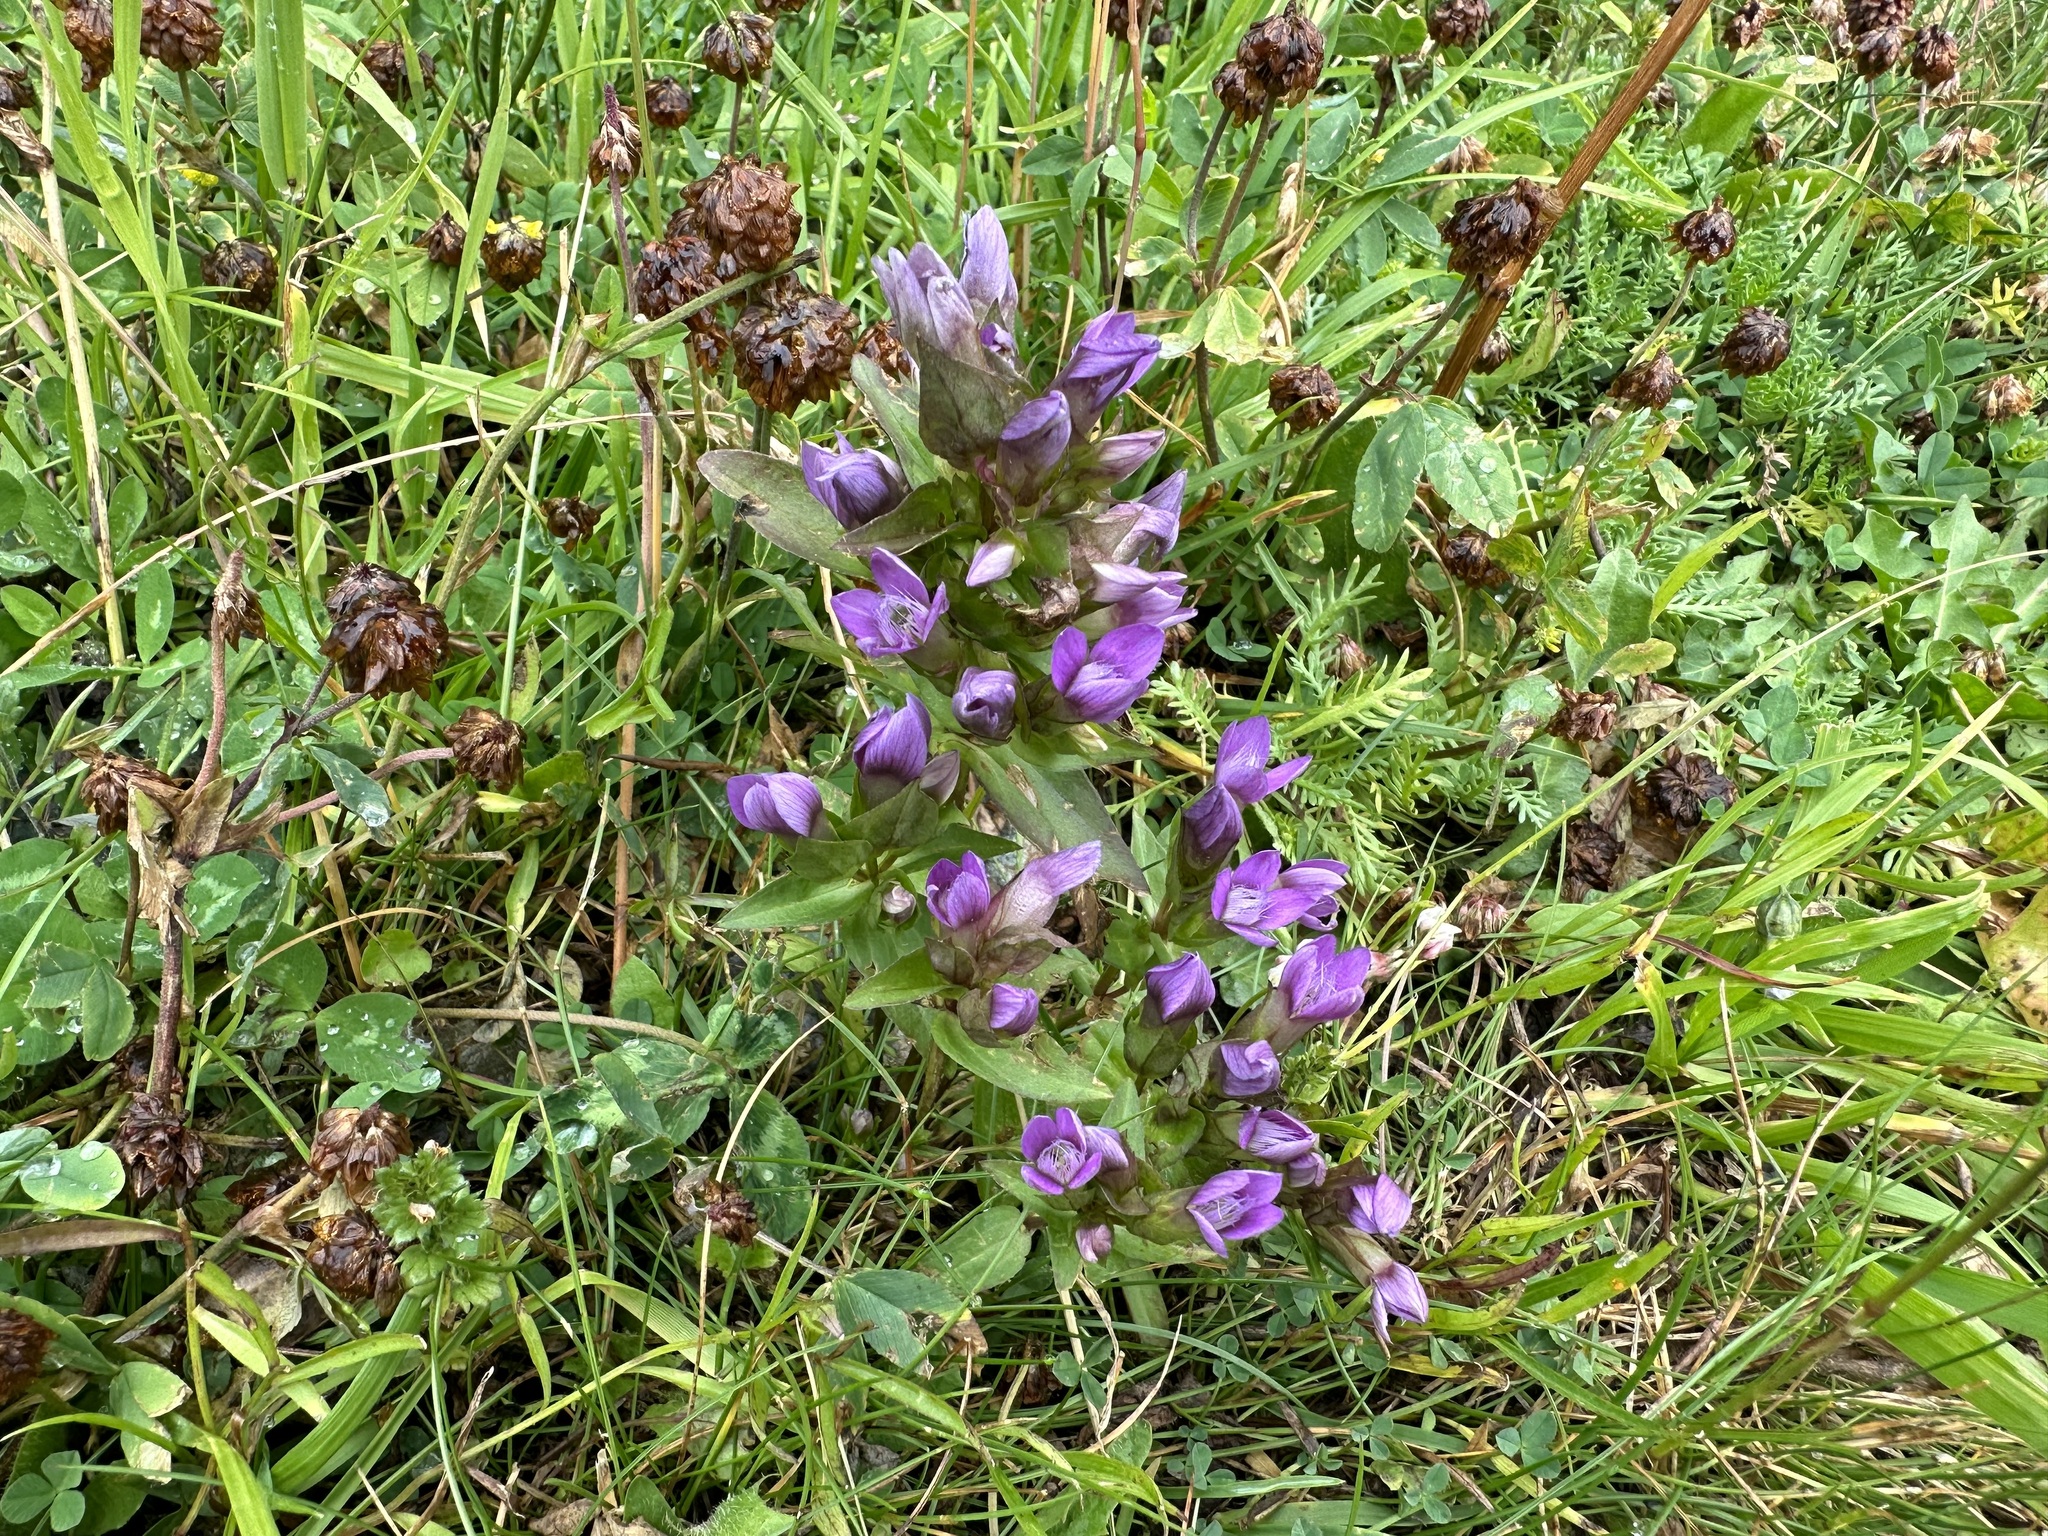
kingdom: Plantae
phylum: Tracheophyta
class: Magnoliopsida
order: Gentianales
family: Gentianaceae
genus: Gentianella
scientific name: Gentianella campestris
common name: Field gentian
